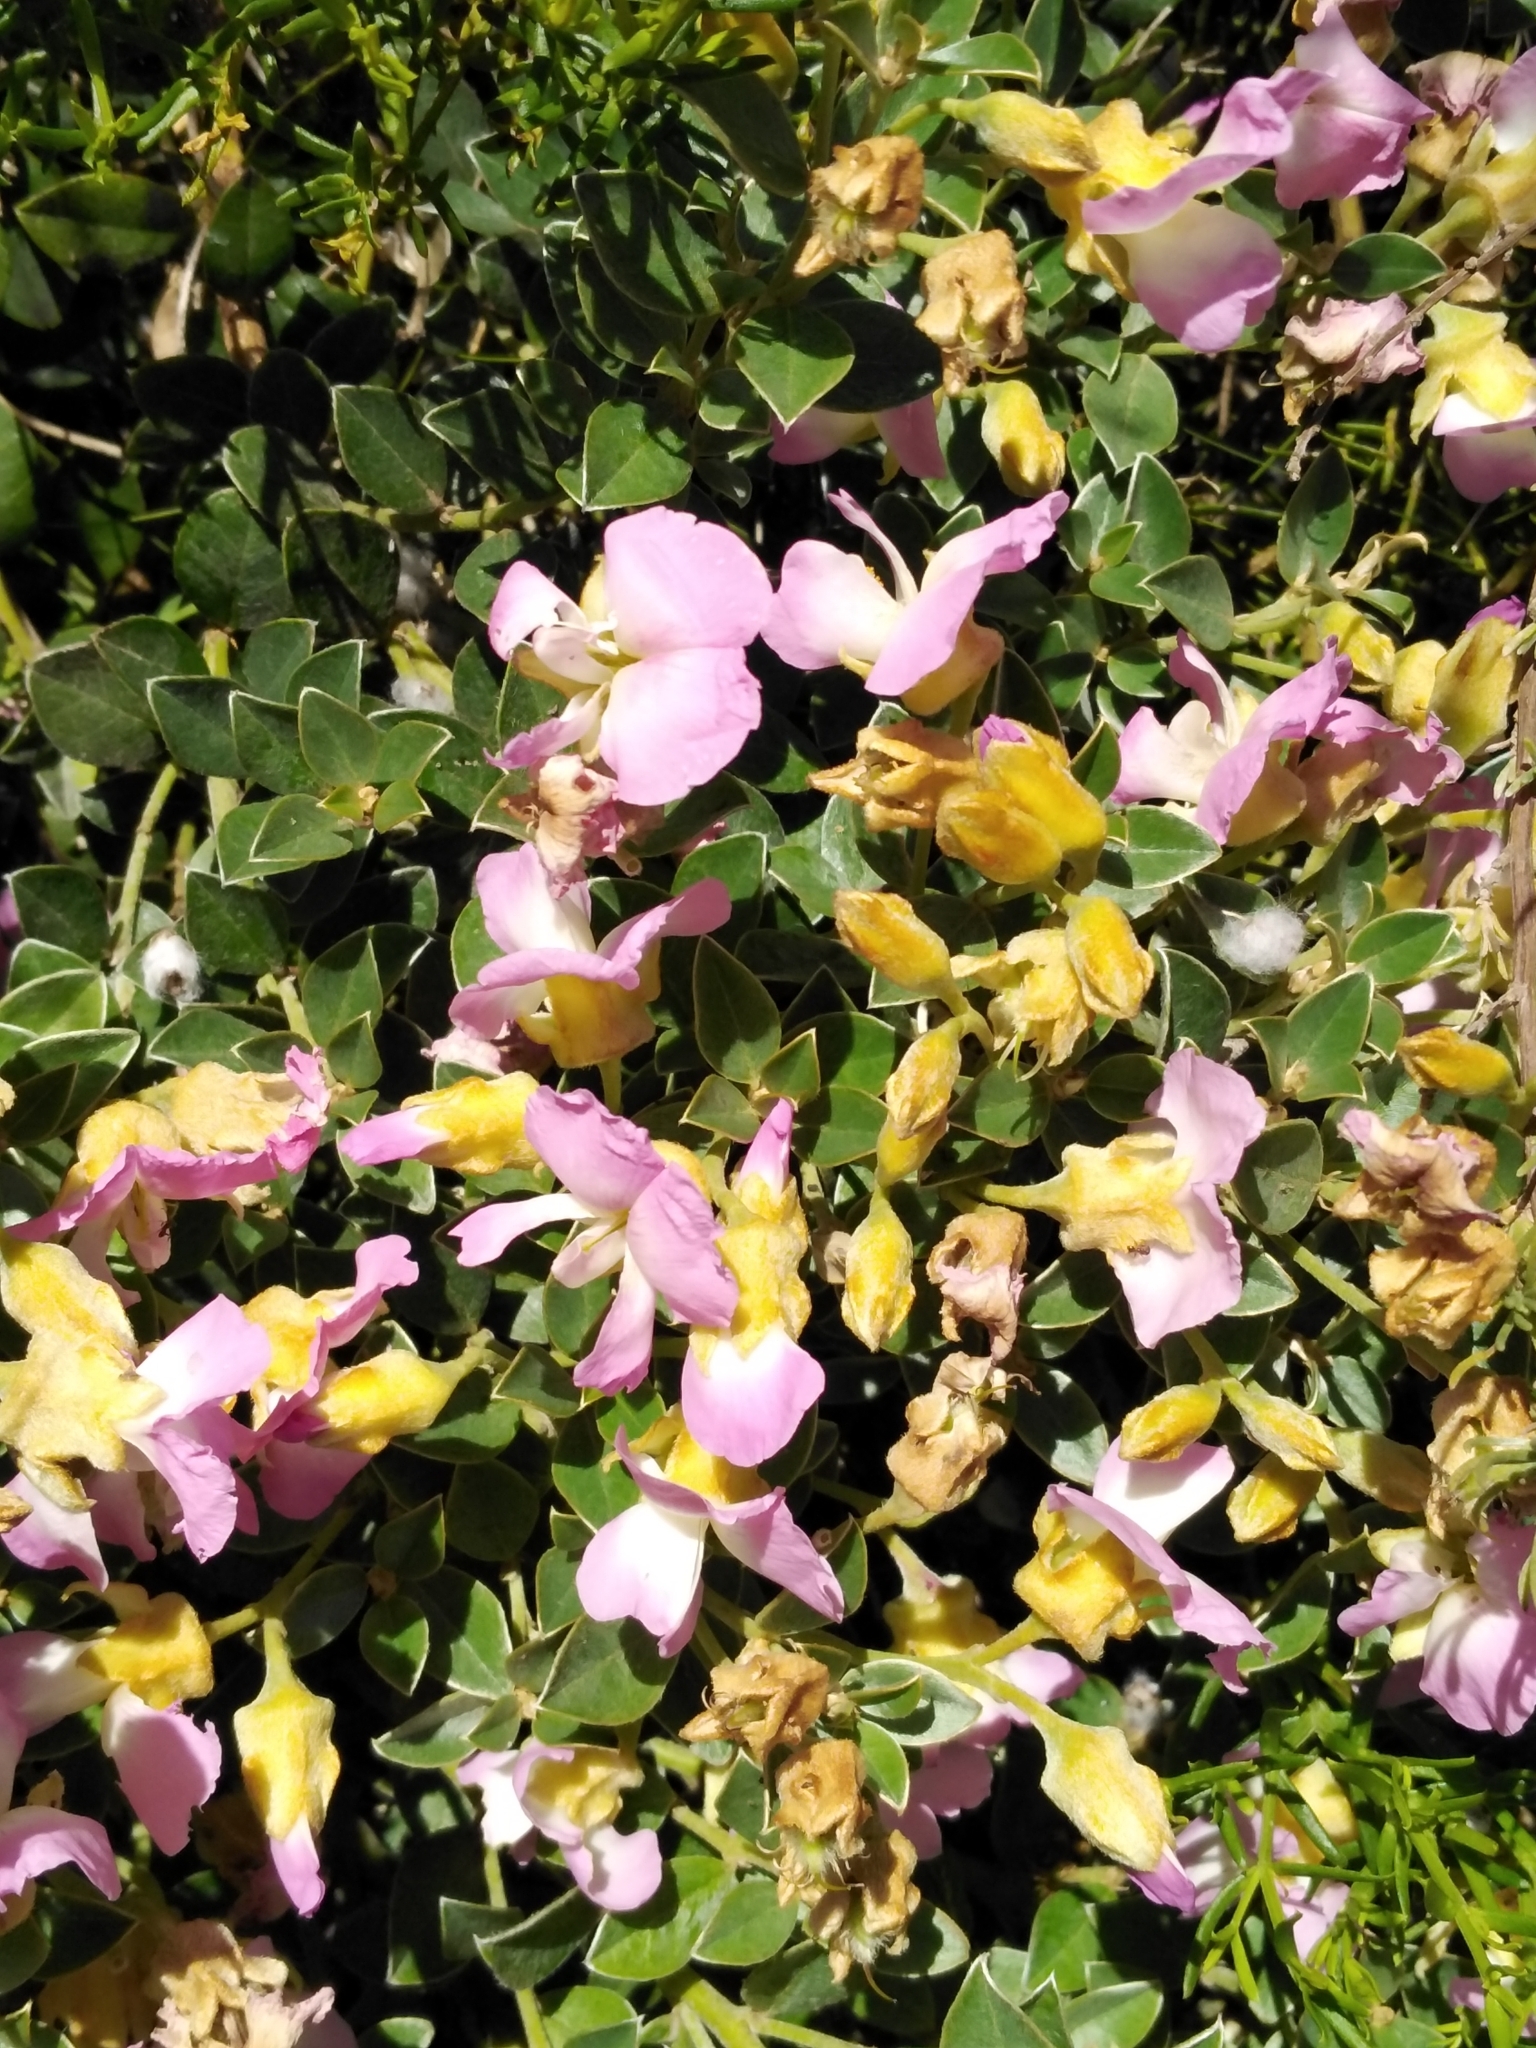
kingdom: Plantae
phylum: Tracheophyta
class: Magnoliopsida
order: Fabales
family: Fabaceae
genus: Podalyria
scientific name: Podalyria microphylla
